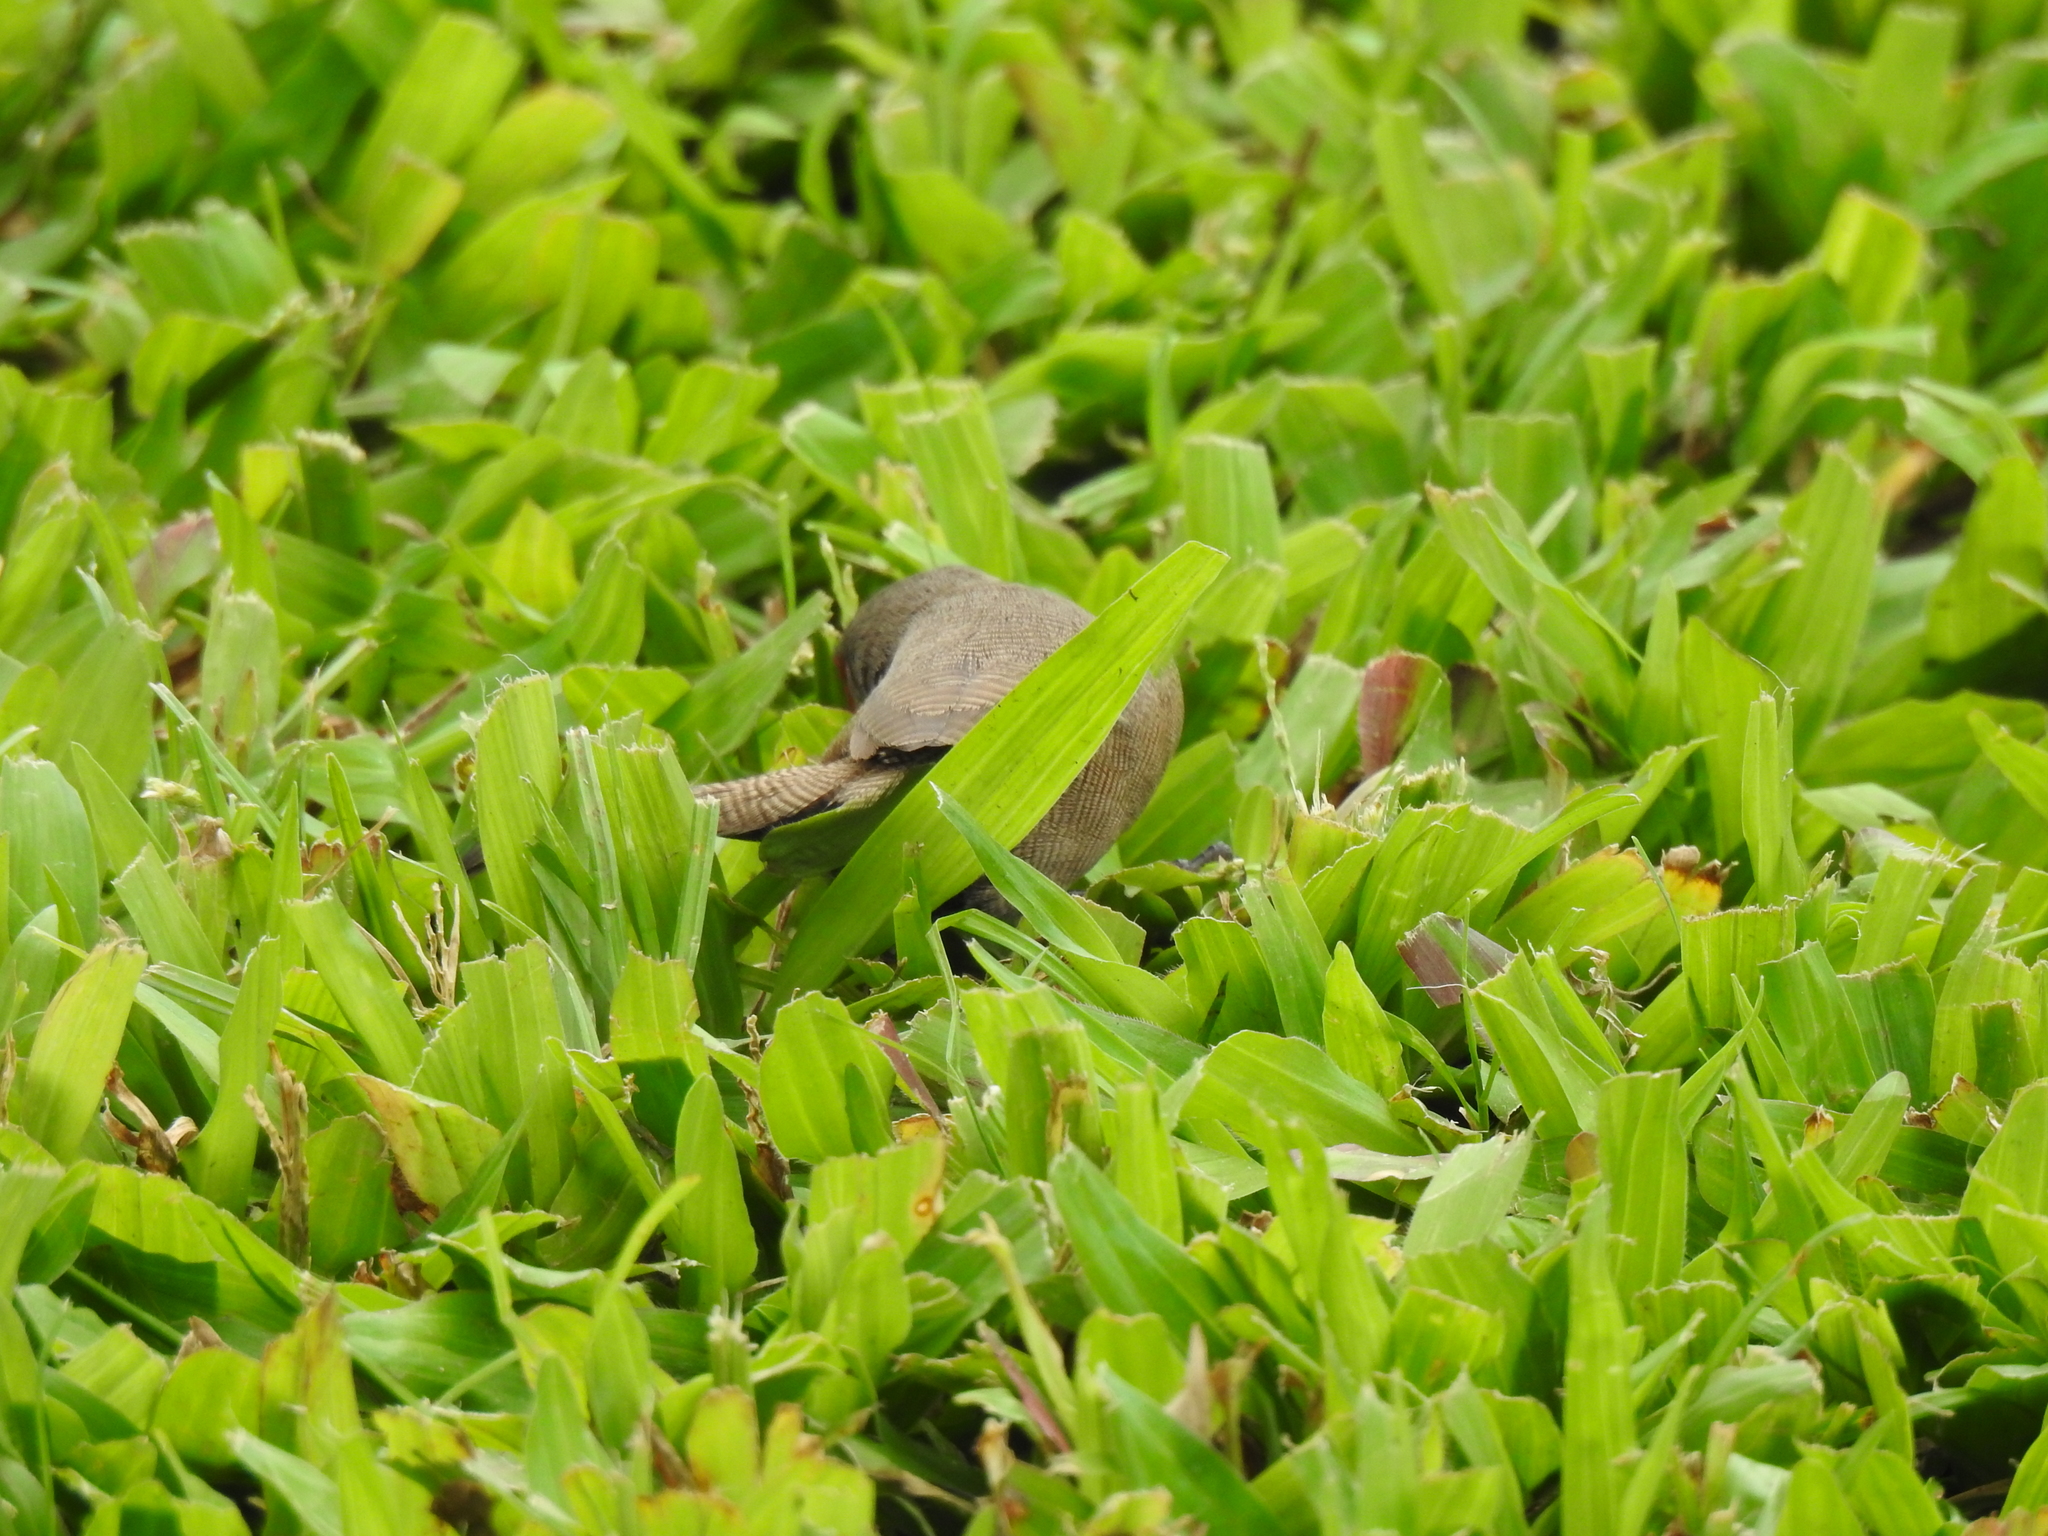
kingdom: Animalia
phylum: Chordata
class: Aves
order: Passeriformes
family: Estrildidae
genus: Estrilda
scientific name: Estrilda astrild
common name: Common waxbill
